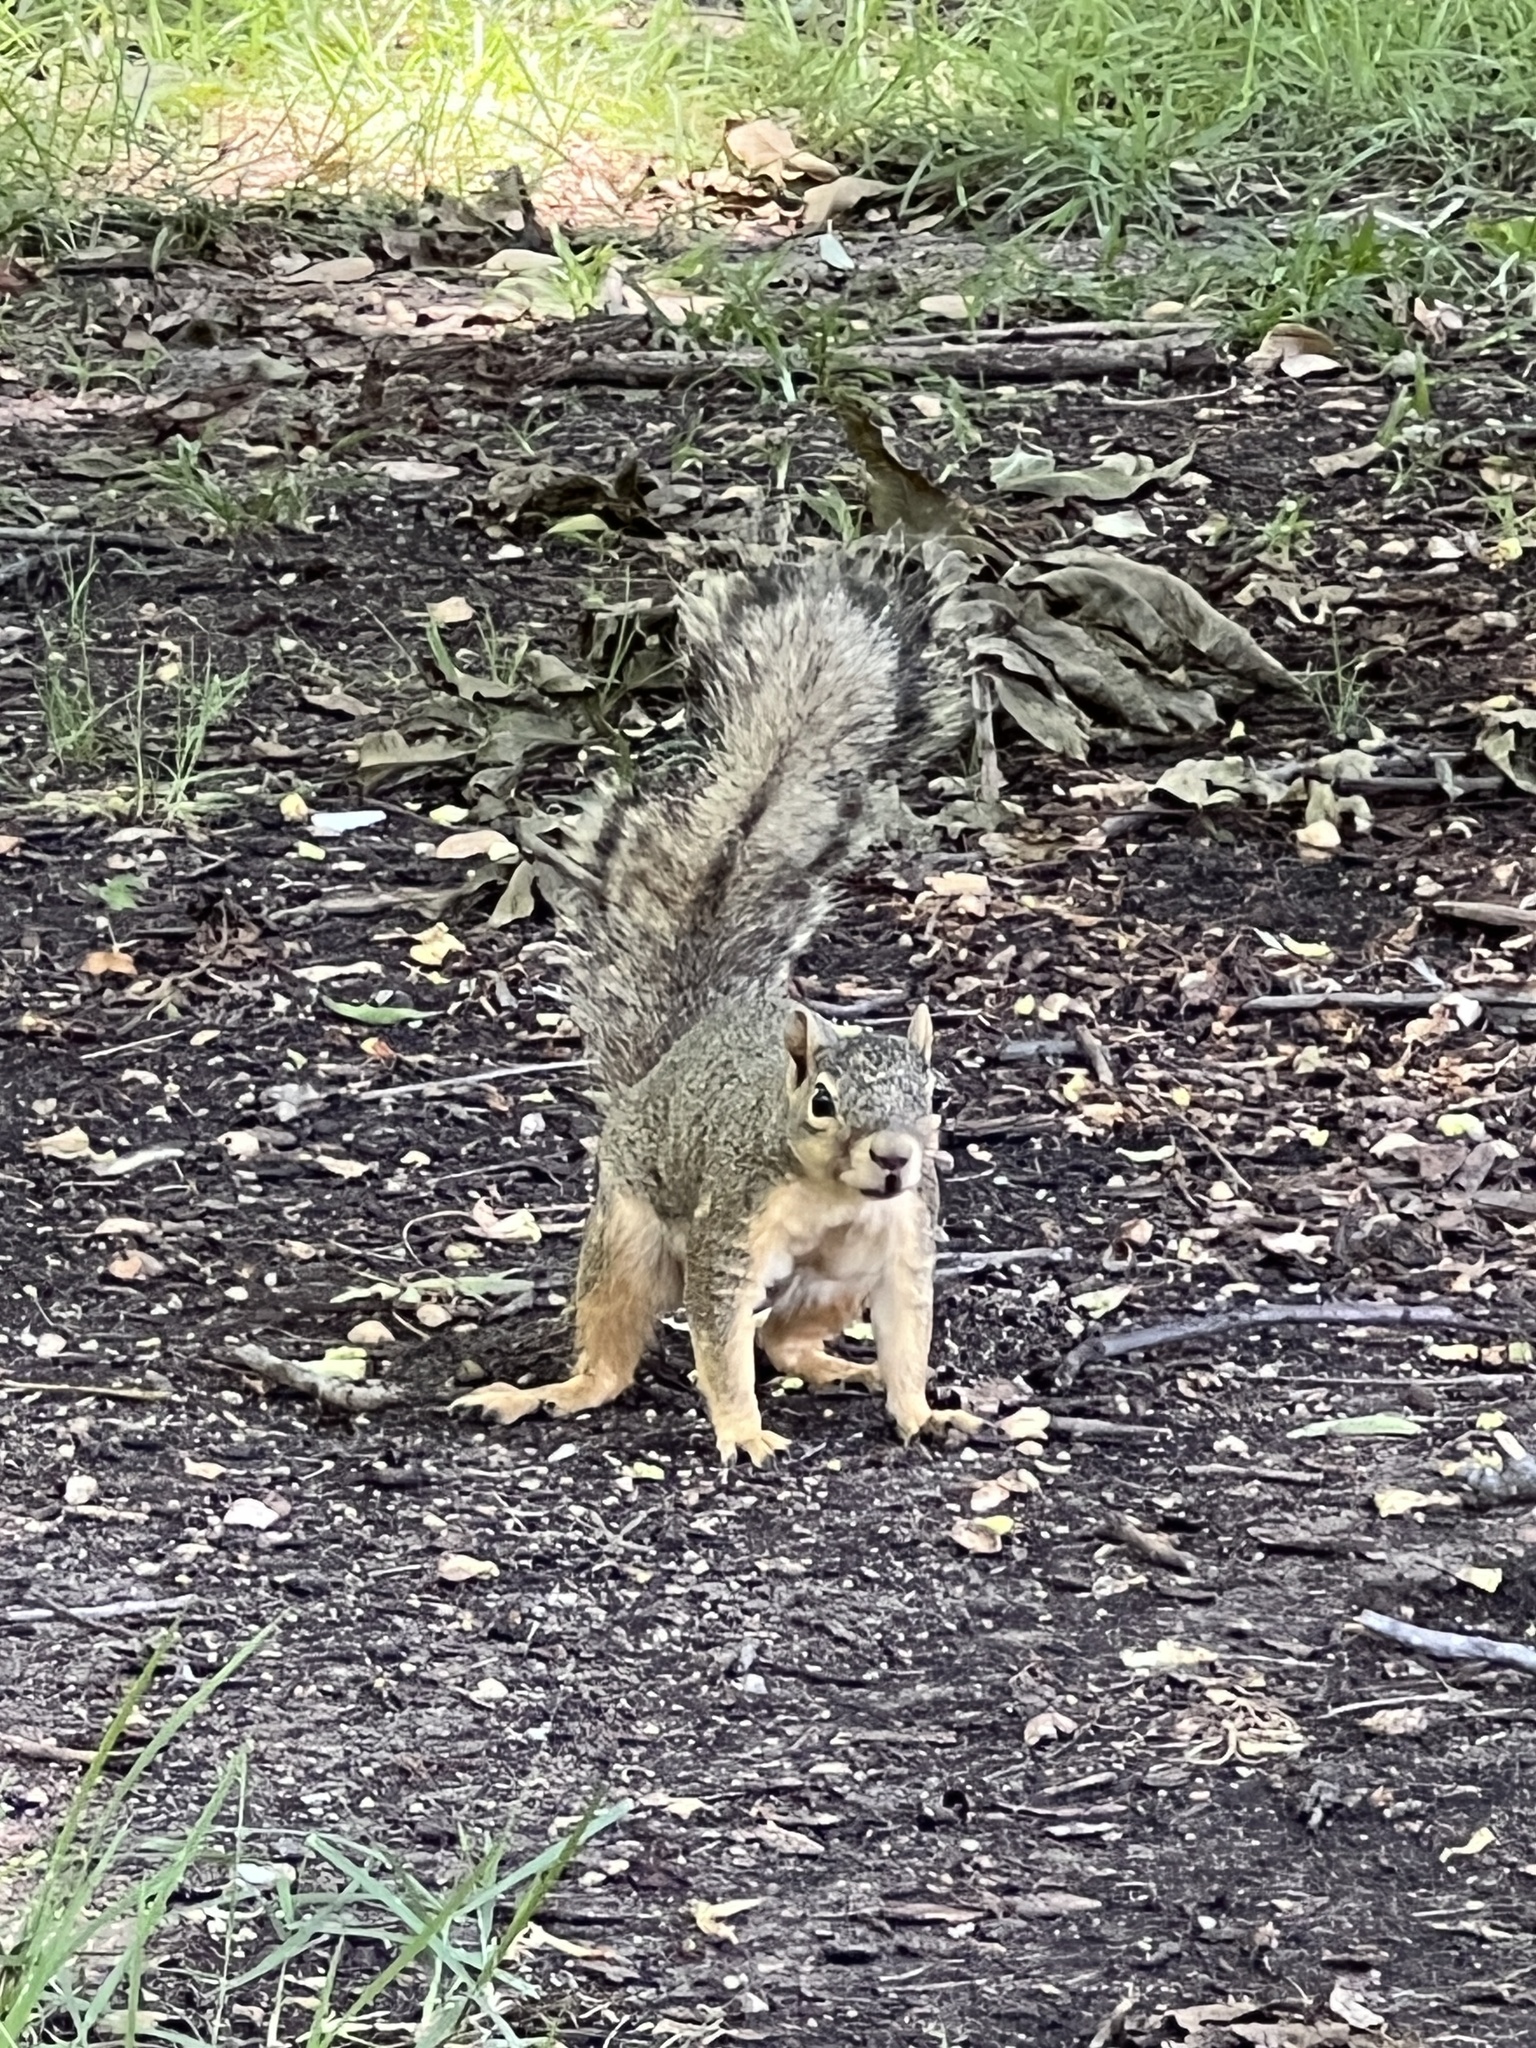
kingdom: Animalia
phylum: Chordata
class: Mammalia
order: Rodentia
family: Sciuridae
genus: Sciurus
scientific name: Sciurus niger
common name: Fox squirrel
